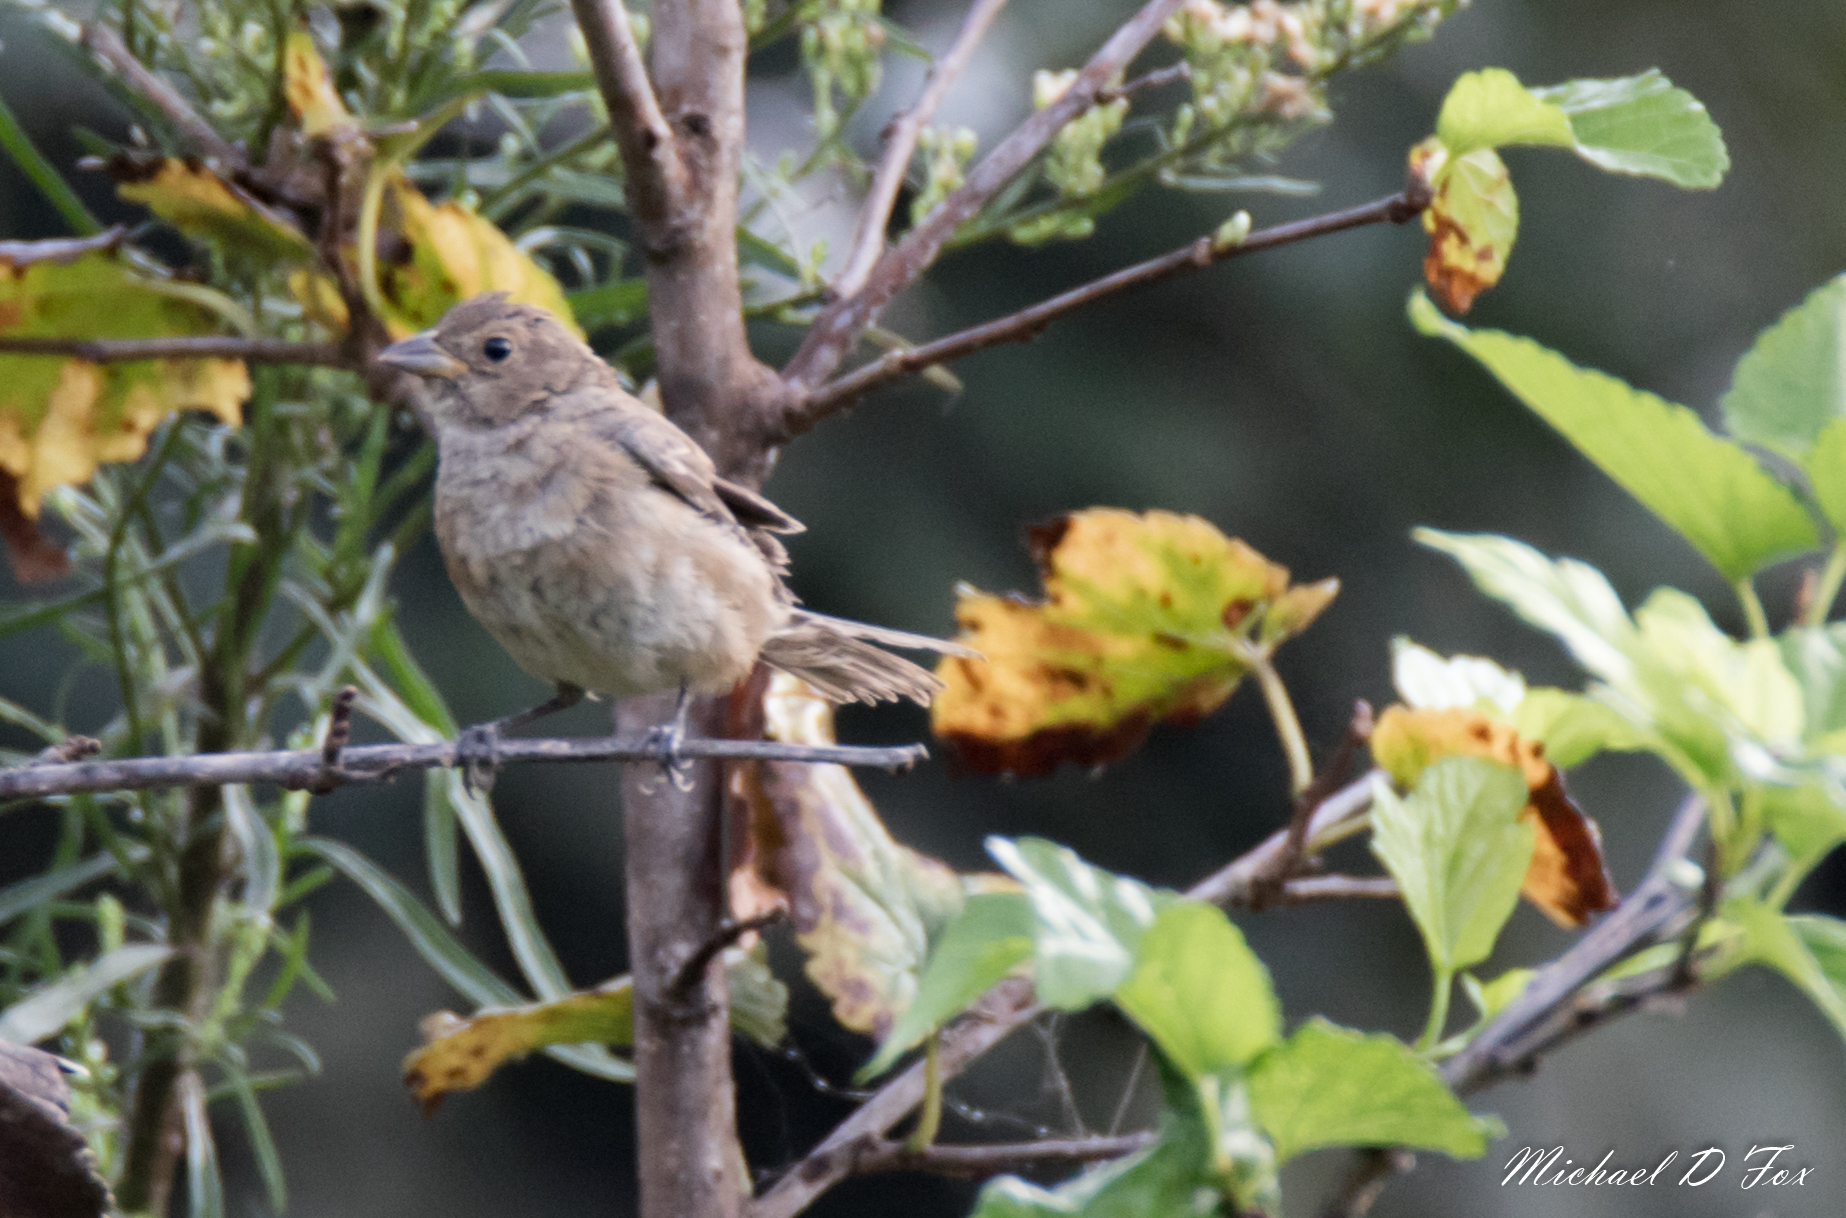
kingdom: Animalia
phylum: Chordata
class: Aves
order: Passeriformes
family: Cardinalidae
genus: Passerina
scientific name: Passerina cyanea
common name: Indigo bunting
